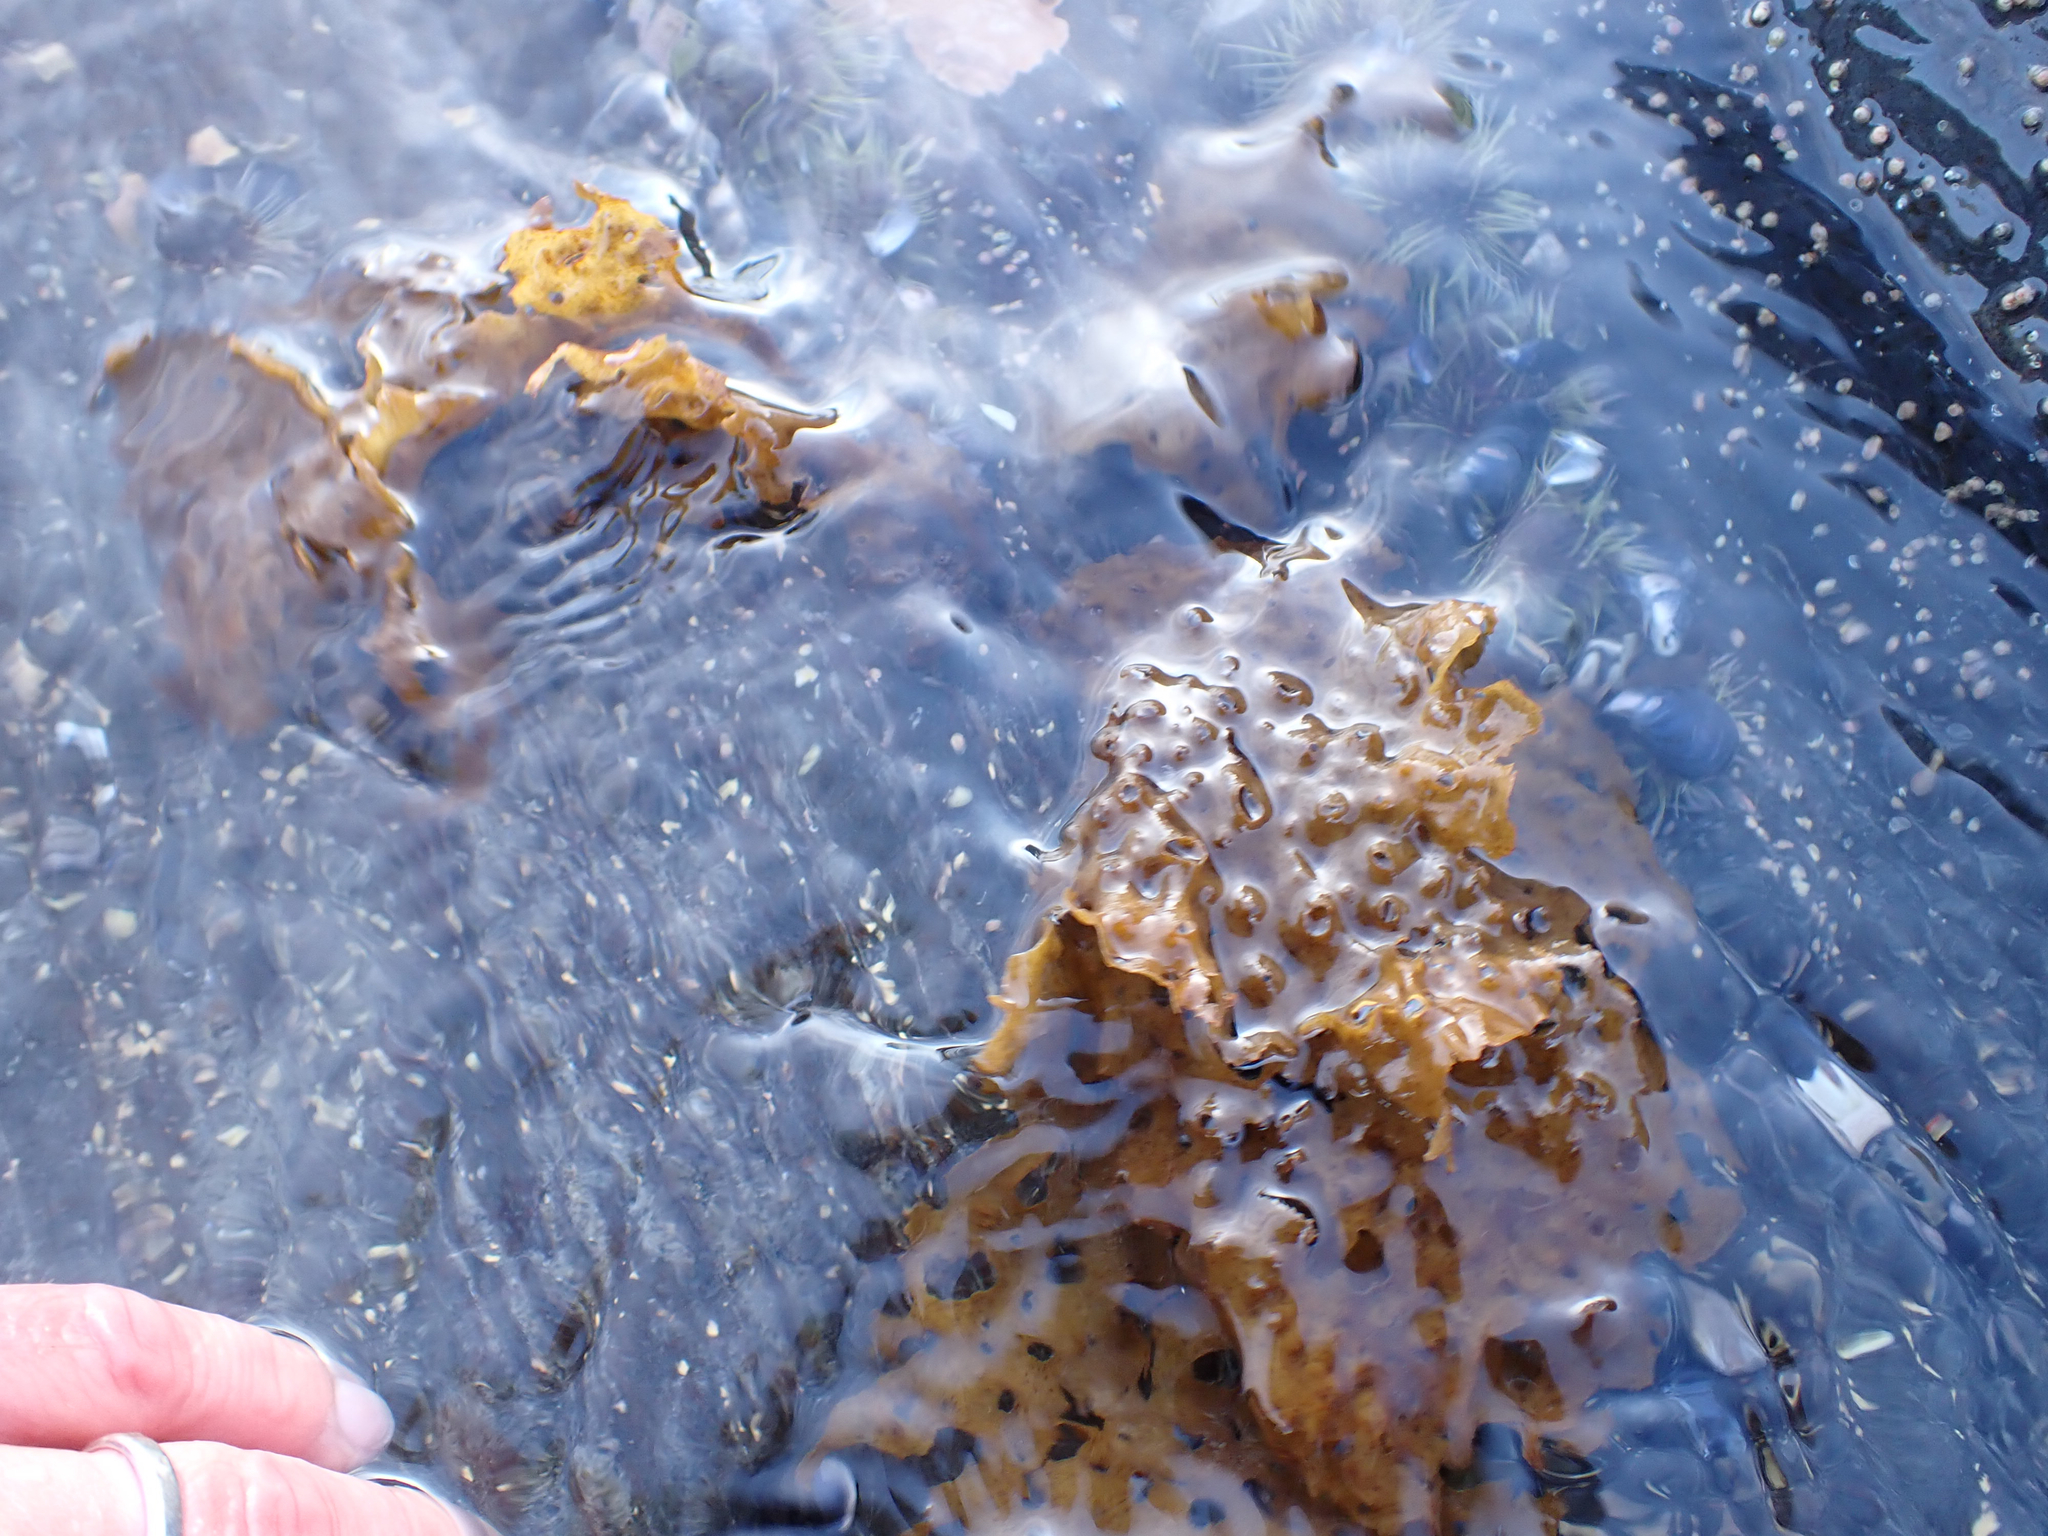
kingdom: Chromista
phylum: Ochrophyta
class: Phaeophyceae
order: Laminariales
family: Costariaceae
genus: Agarum
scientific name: Agarum clathratum
